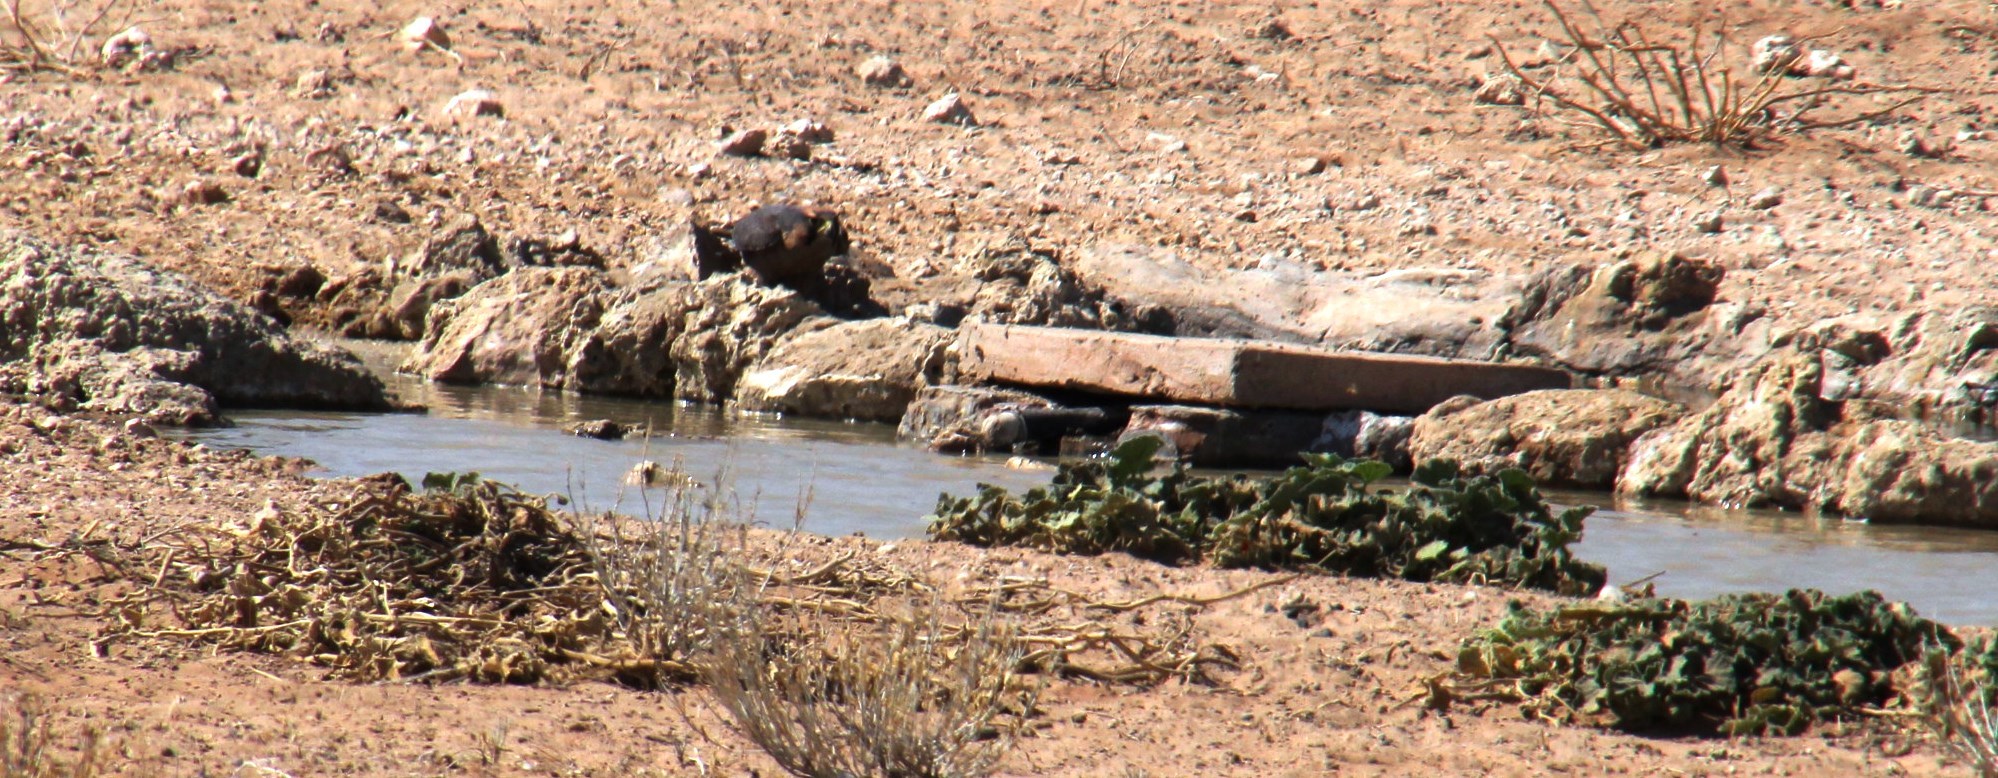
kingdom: Animalia
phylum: Chordata
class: Aves
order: Falconiformes
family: Falconidae
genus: Falco
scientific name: Falco biarmicus
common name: Lanner falcon
